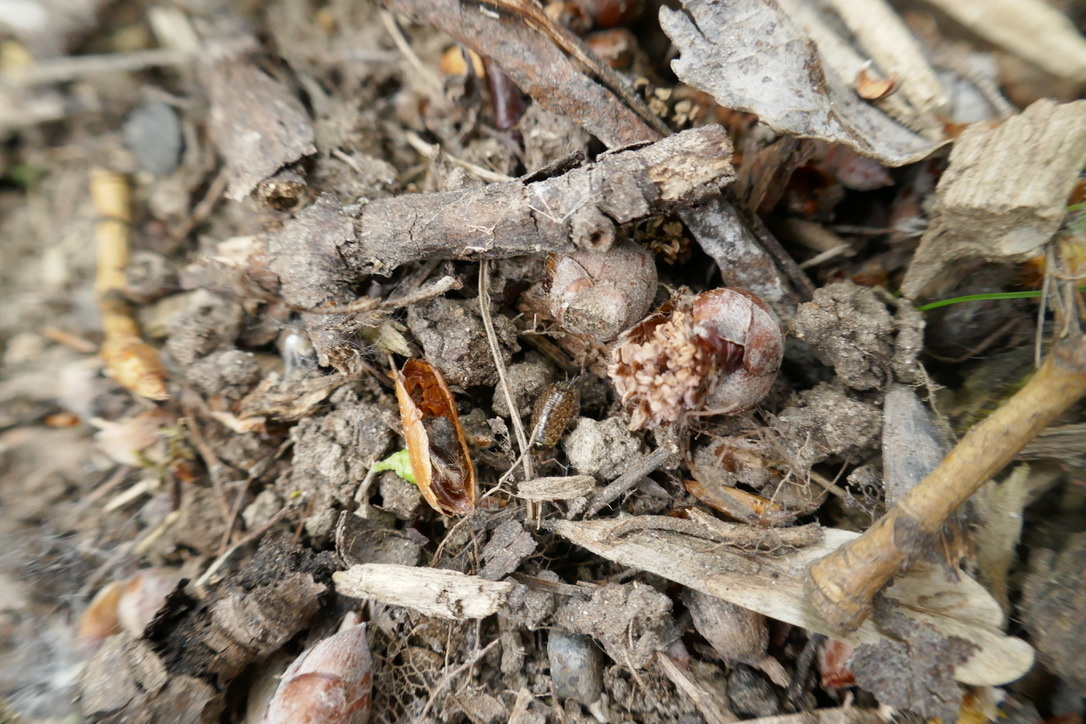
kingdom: Animalia
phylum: Arthropoda
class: Malacostraca
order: Isopoda
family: Philosciidae
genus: Philoscia
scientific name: Philoscia muscorum
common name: Common striped woodlouse
